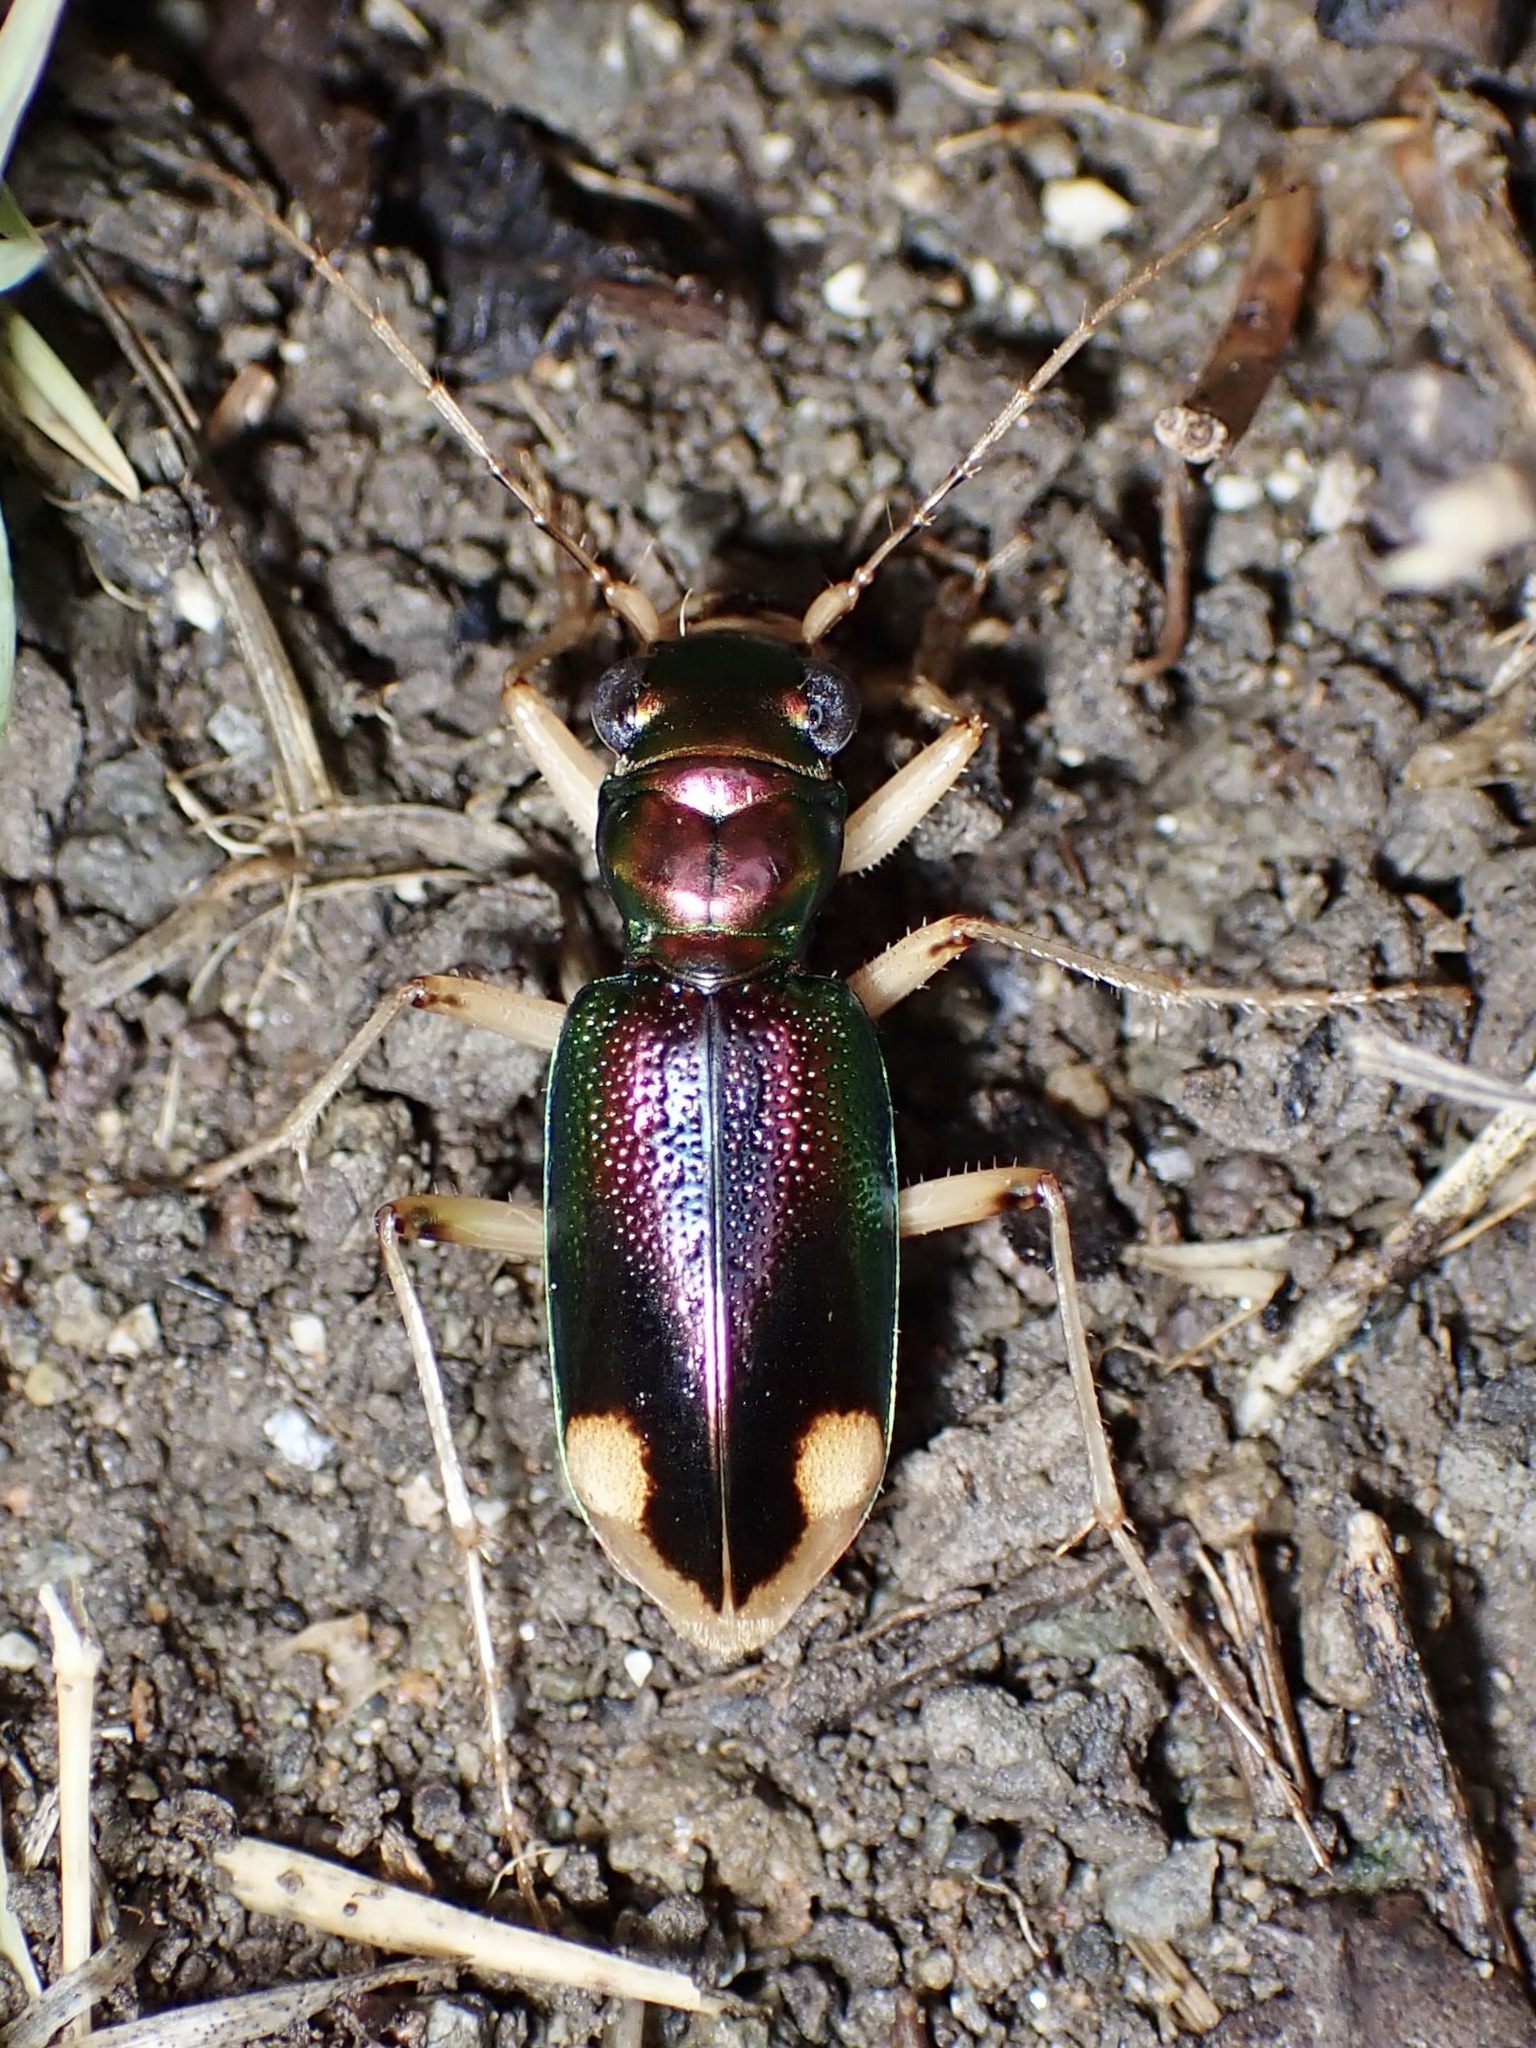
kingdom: Animalia
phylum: Arthropoda
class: Insecta
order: Coleoptera
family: Carabidae
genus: Tetracha
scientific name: Tetracha carolina
